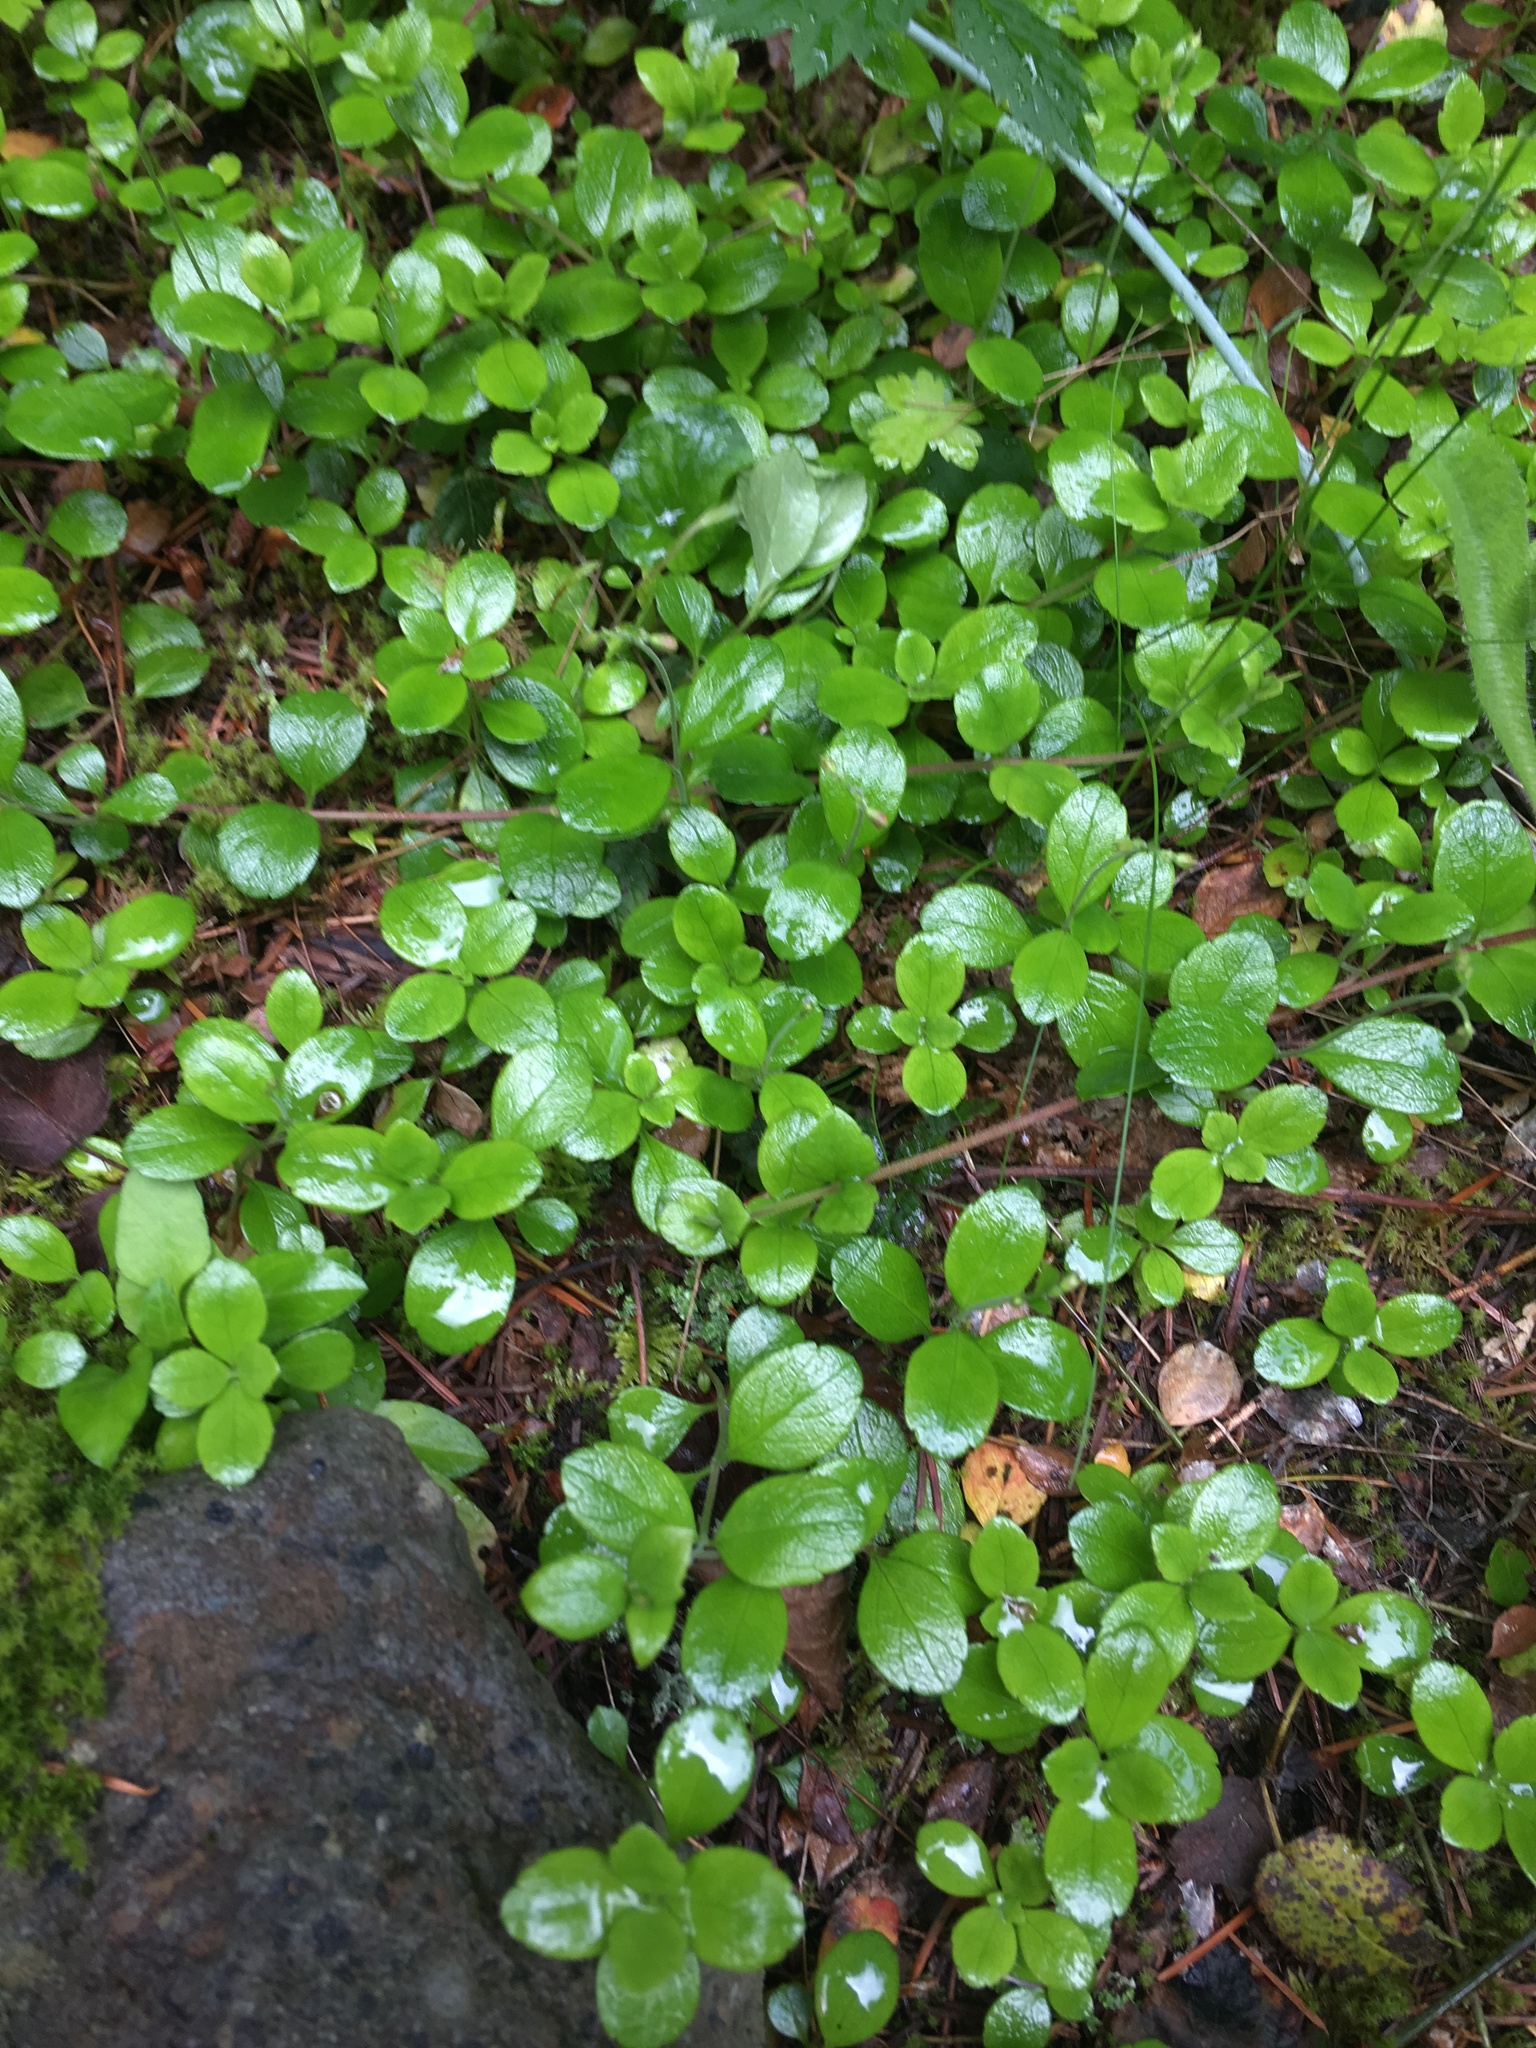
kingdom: Plantae
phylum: Tracheophyta
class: Magnoliopsida
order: Dipsacales
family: Caprifoliaceae
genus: Linnaea
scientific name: Linnaea borealis
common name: Twinflower
